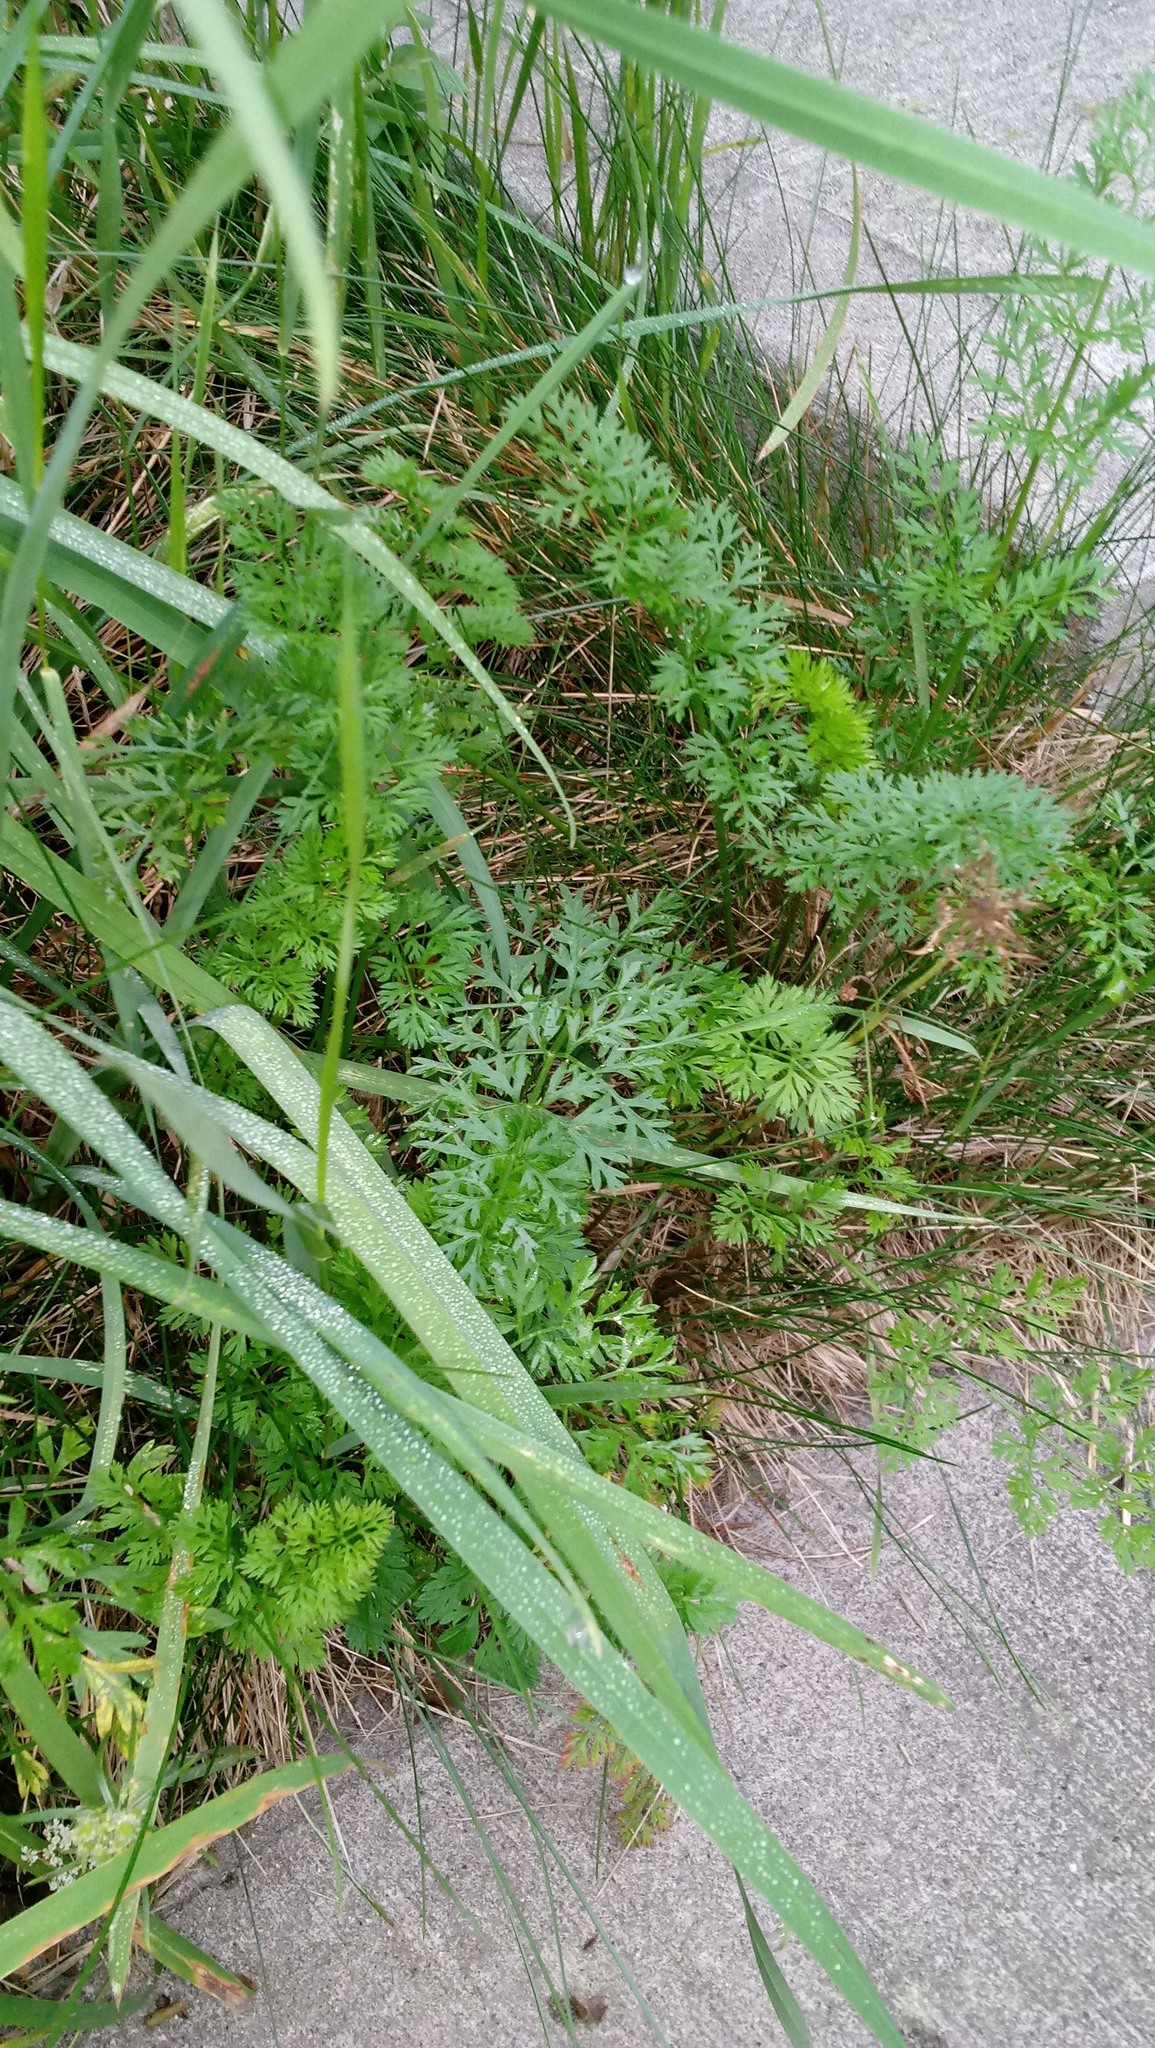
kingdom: Plantae
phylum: Tracheophyta
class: Magnoliopsida
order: Apiales
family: Apiaceae
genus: Daucus
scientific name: Daucus carota
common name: Wild carrot
